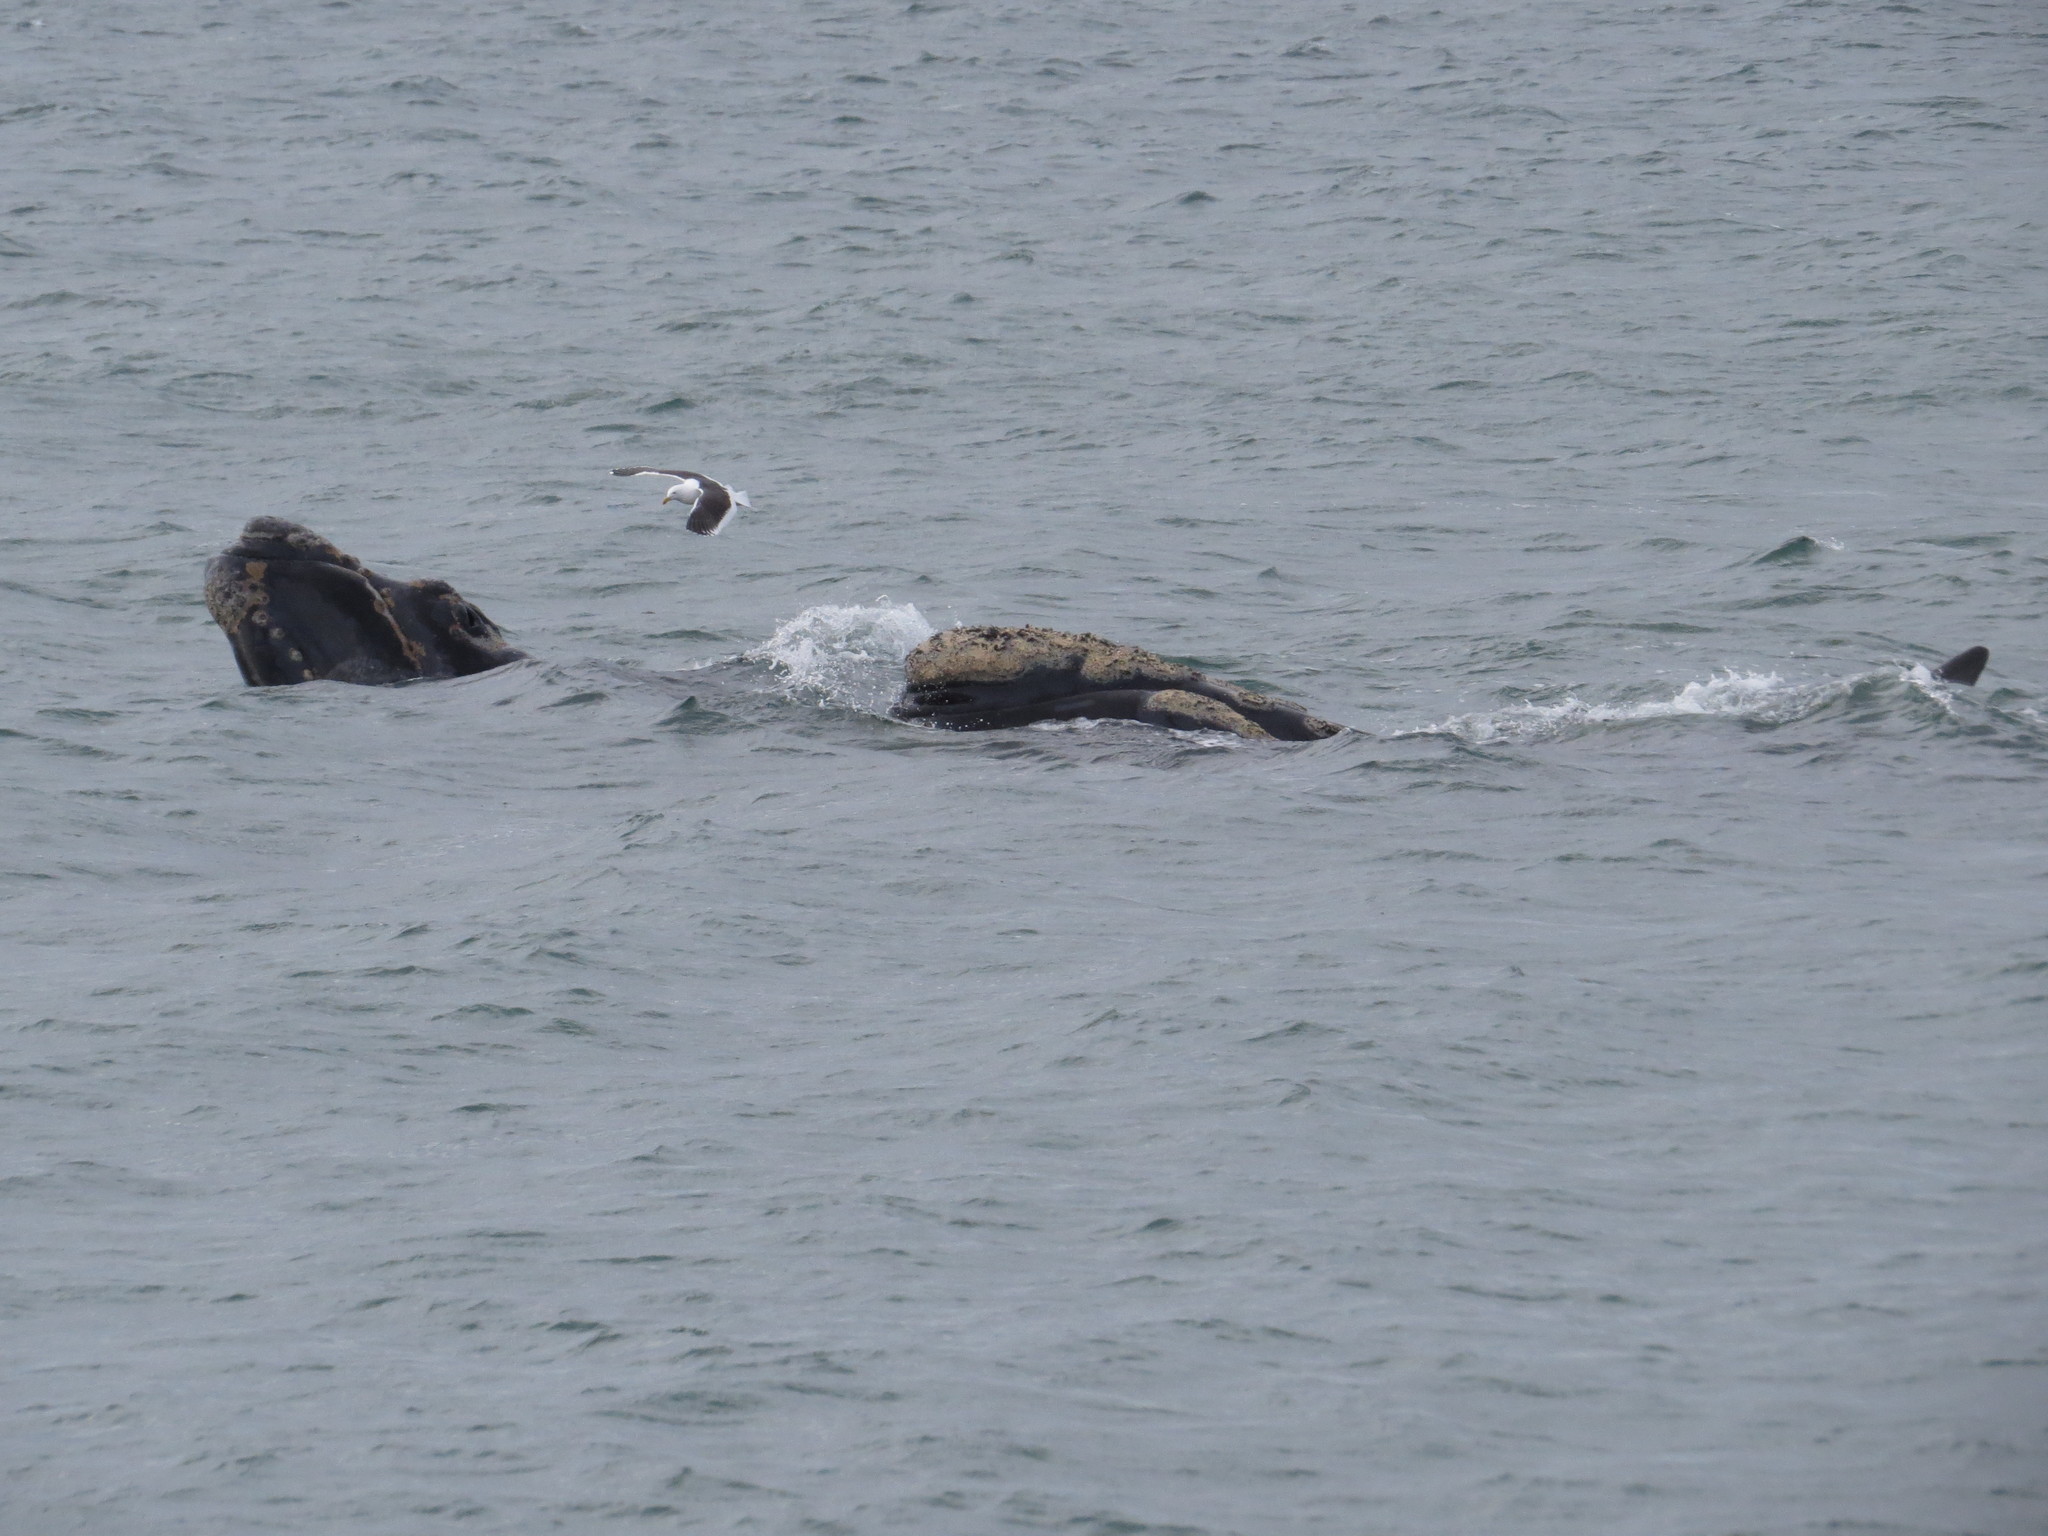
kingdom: Animalia
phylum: Chordata
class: Aves
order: Charadriiformes
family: Laridae
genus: Larus
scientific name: Larus dominicanus
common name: Kelp gull
